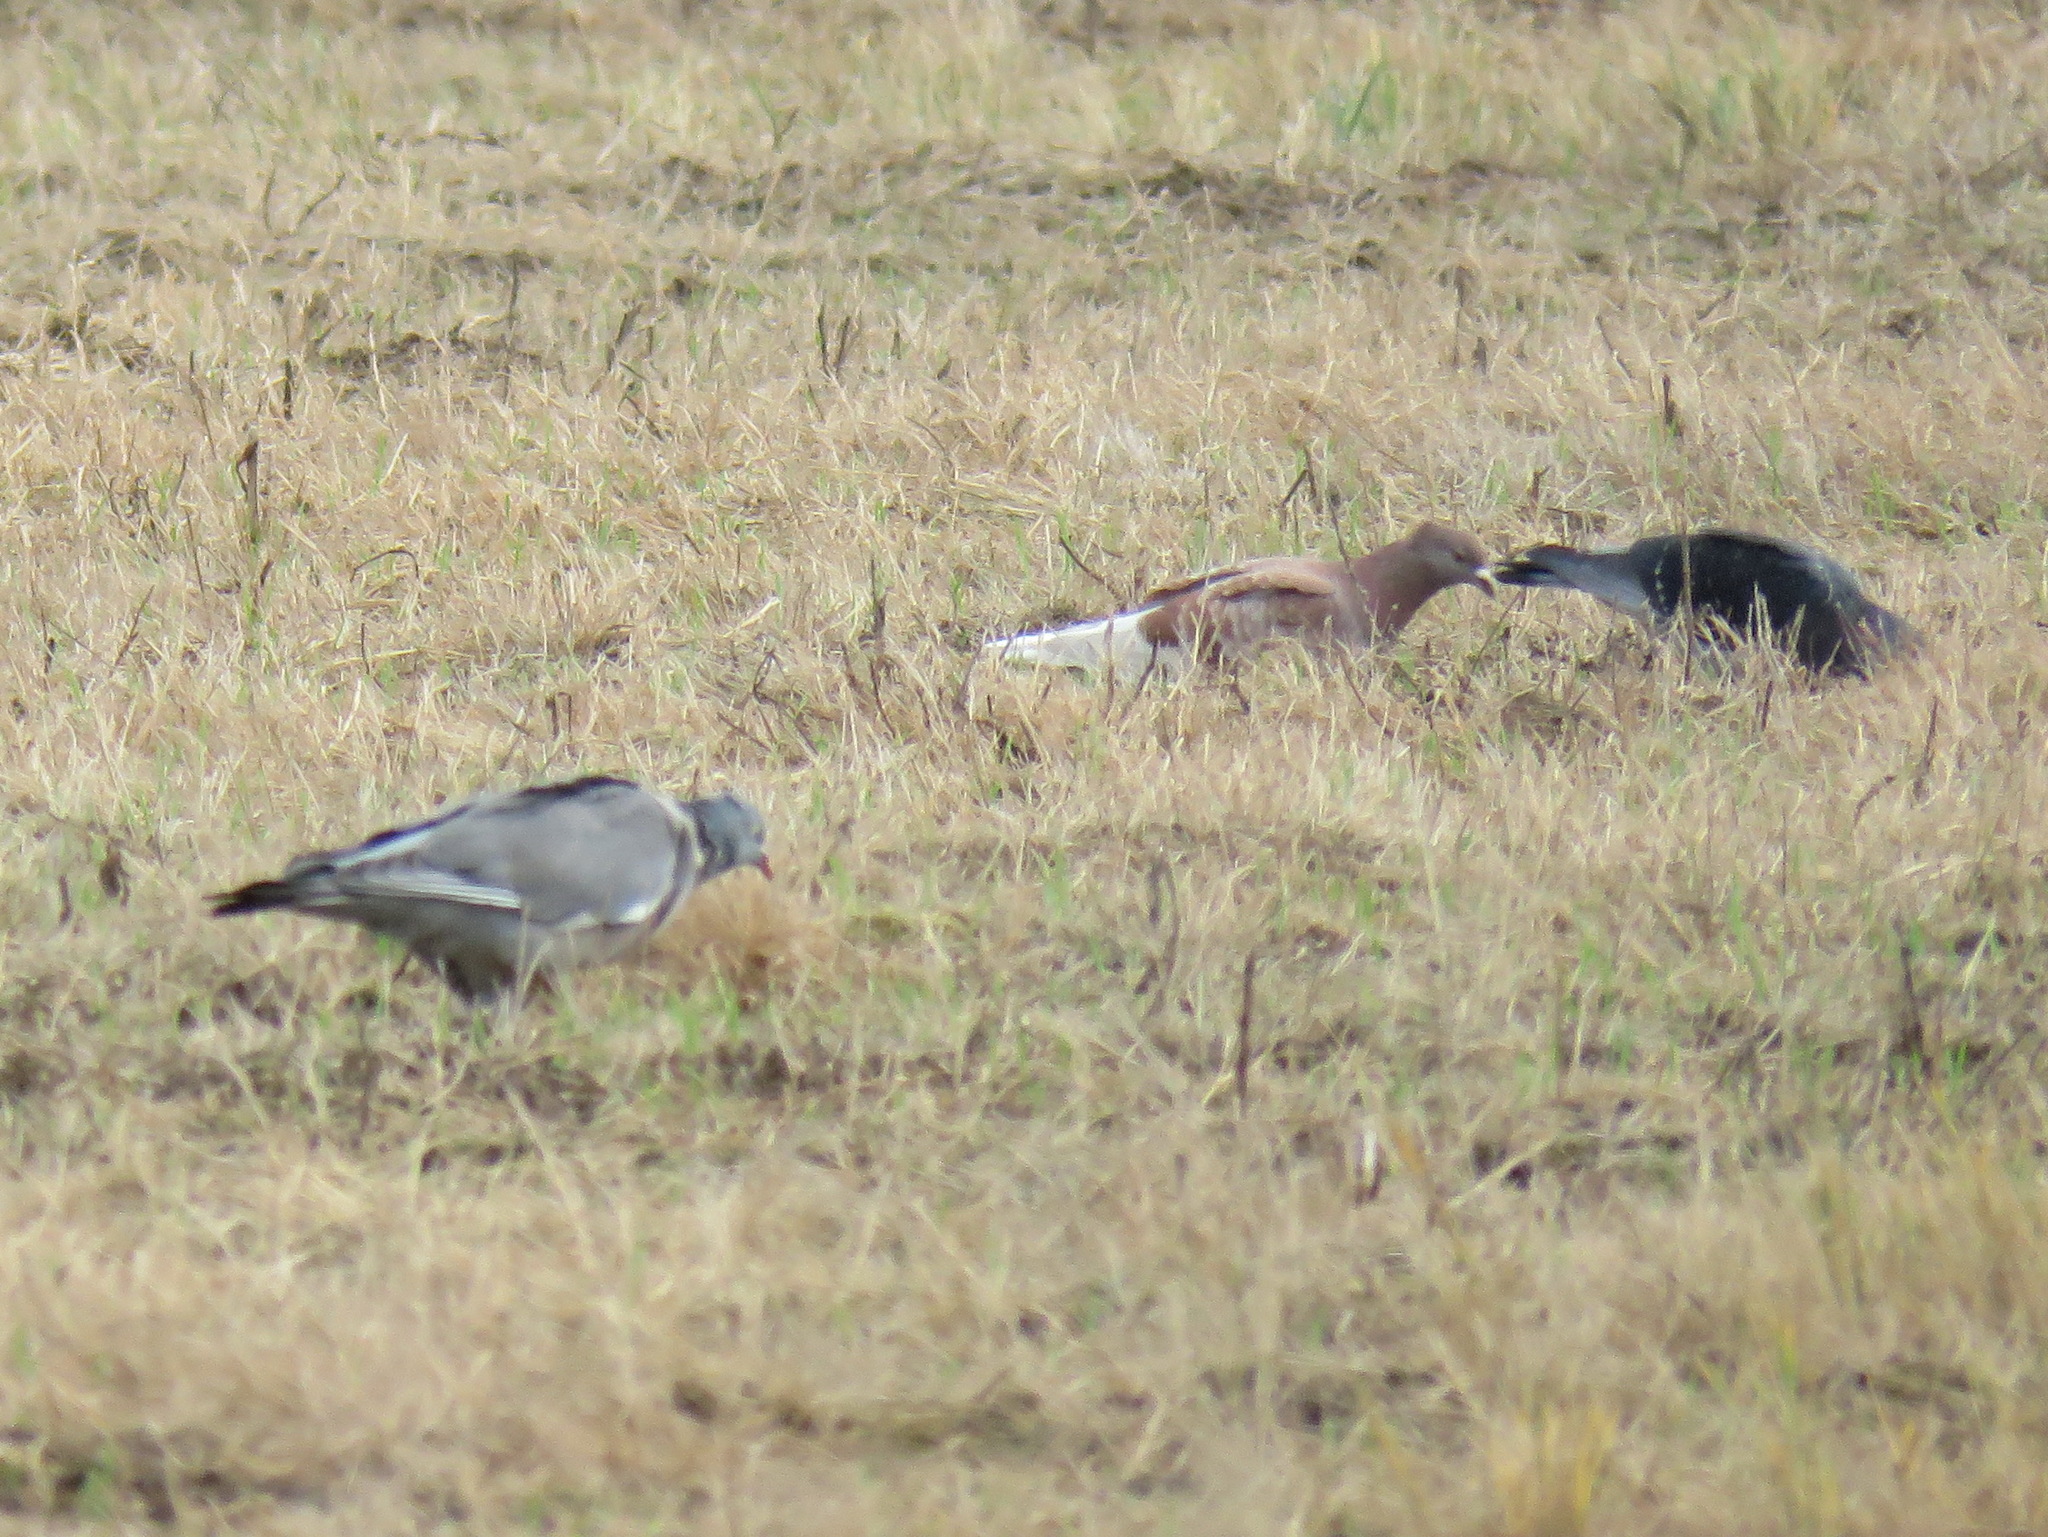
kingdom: Animalia
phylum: Chordata
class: Aves
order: Columbiformes
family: Columbidae
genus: Columba
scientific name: Columba palumbus
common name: Common wood pigeon
